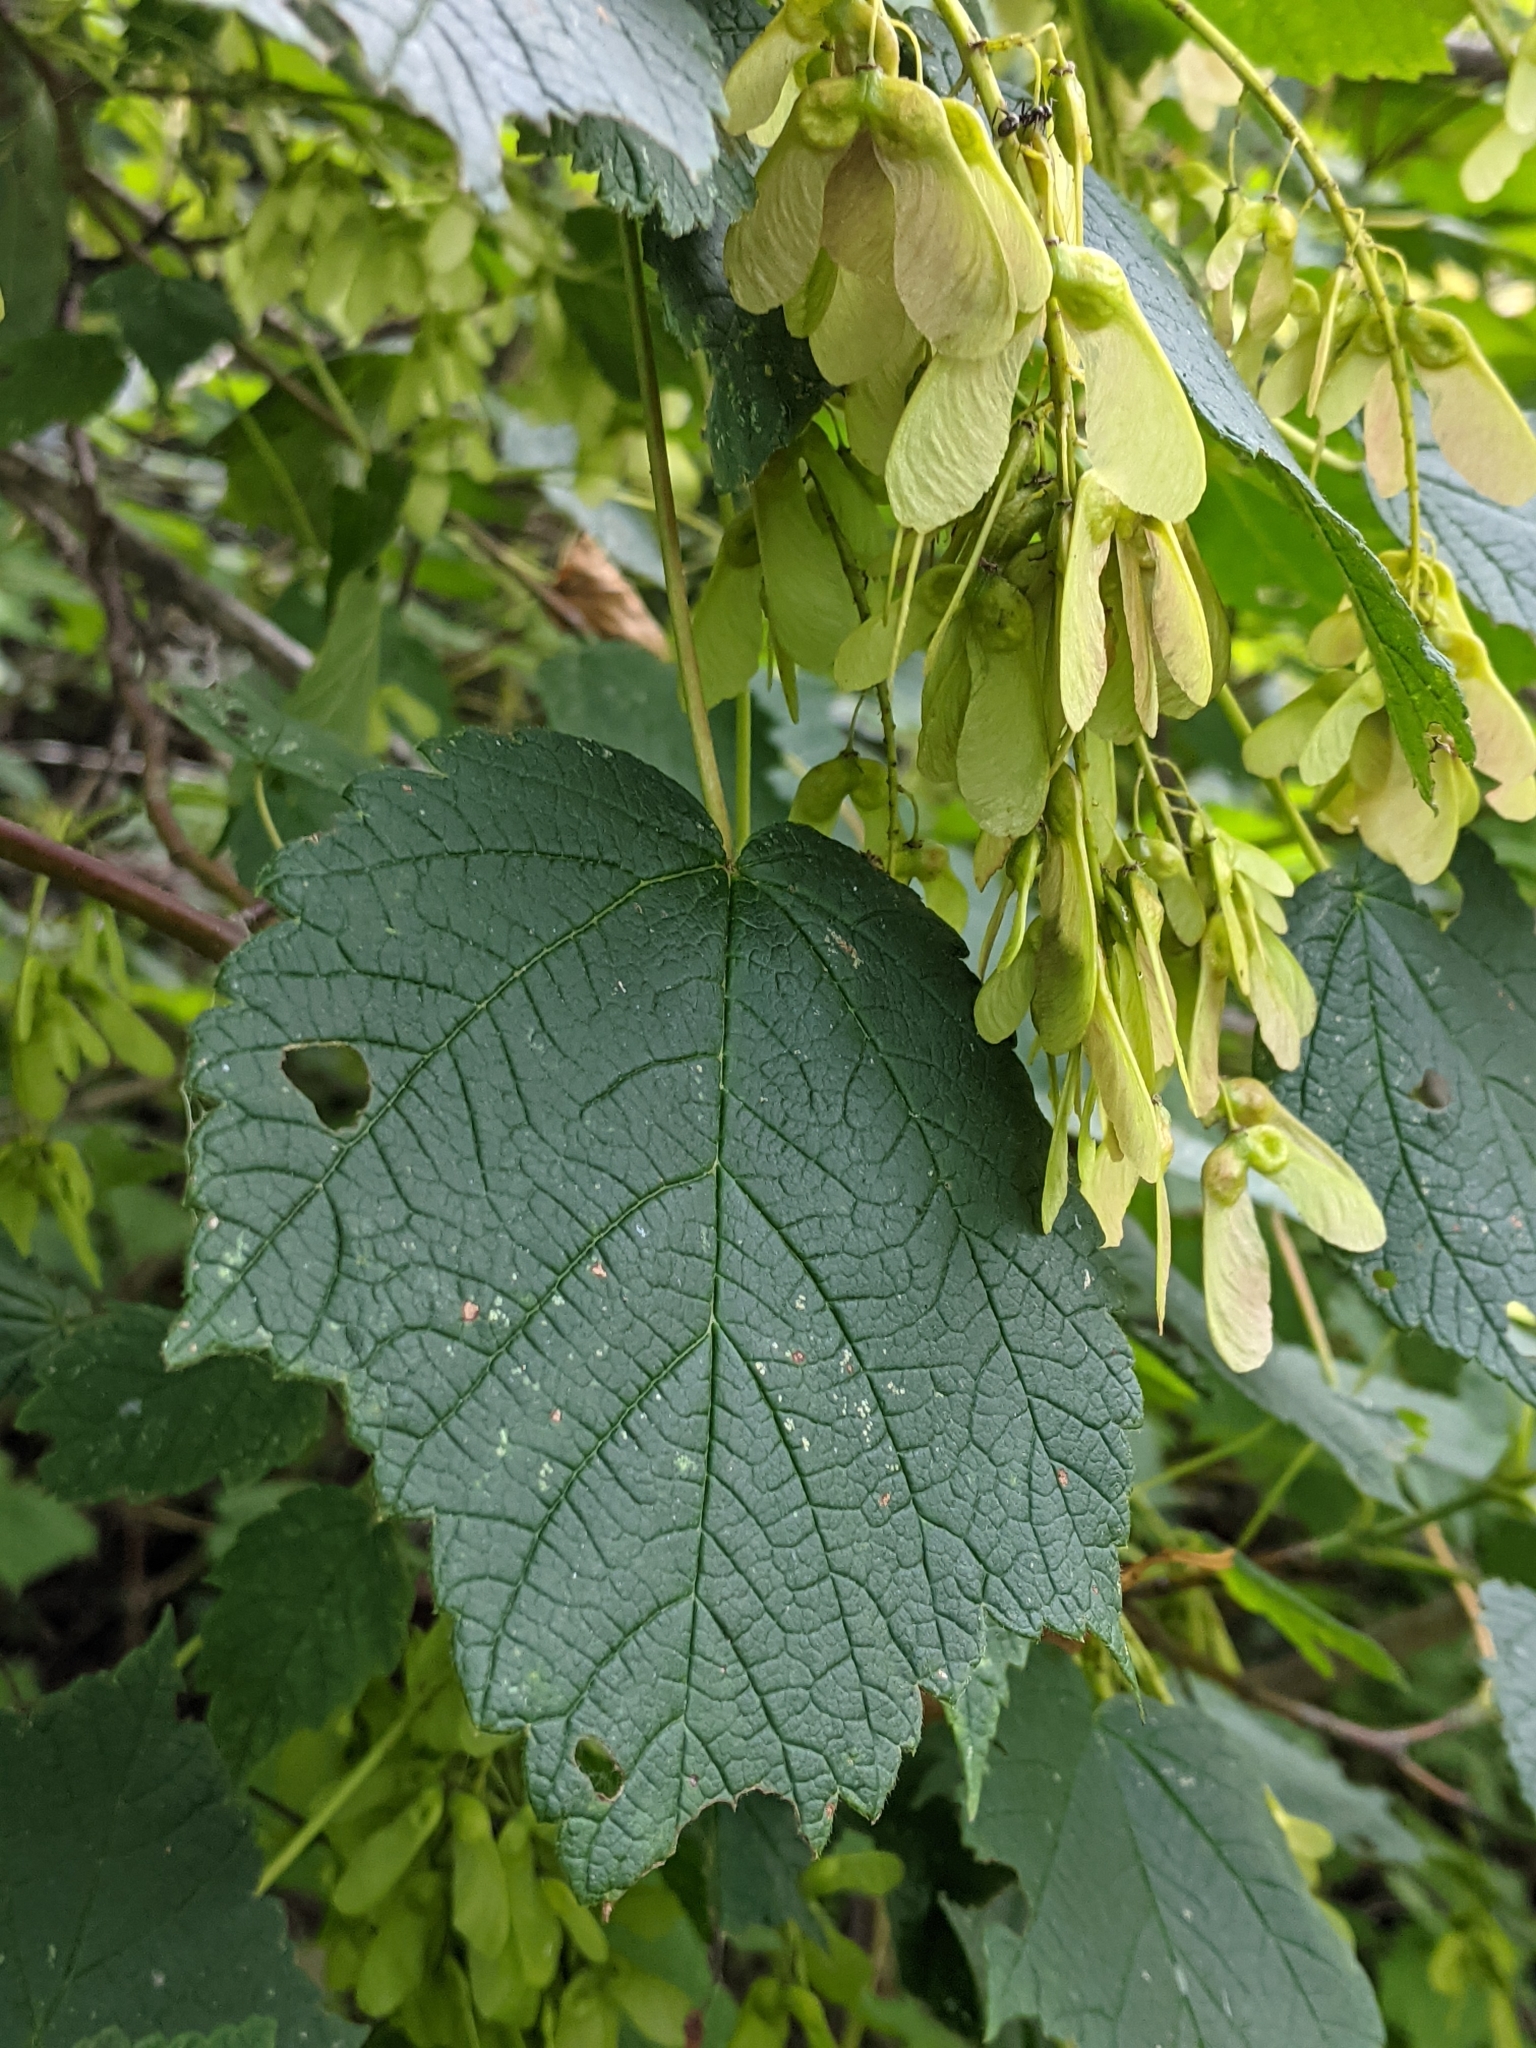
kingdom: Plantae
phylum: Tracheophyta
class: Magnoliopsida
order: Sapindales
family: Sapindaceae
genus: Acer
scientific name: Acer spicatum
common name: Mountain maple
